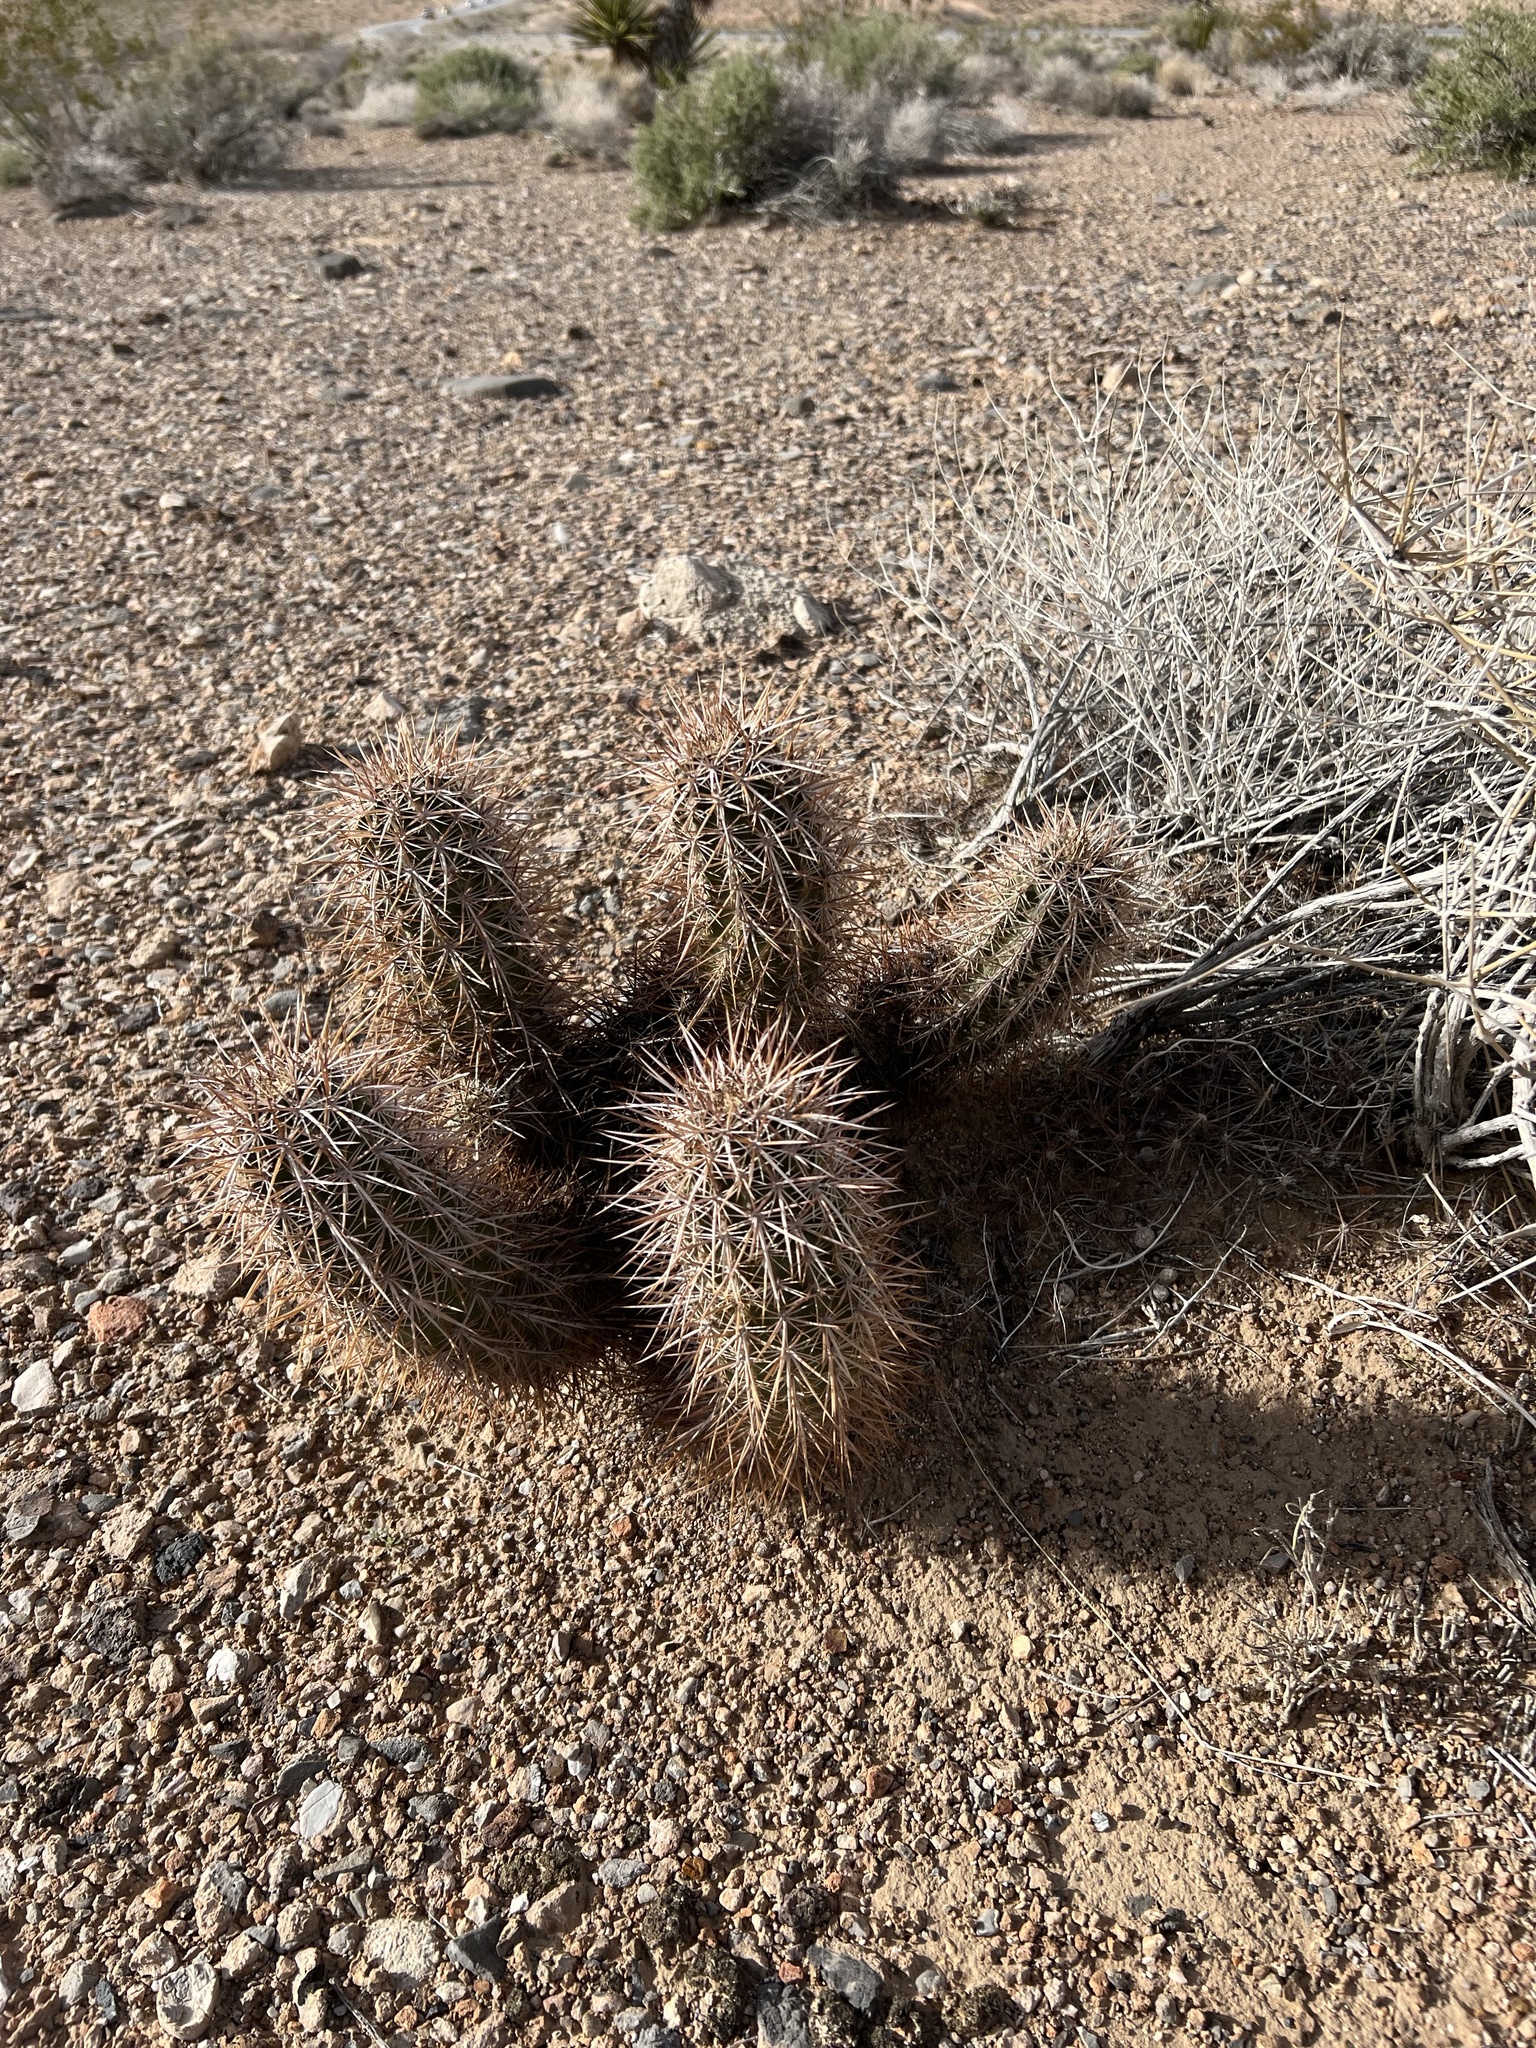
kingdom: Plantae
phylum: Tracheophyta
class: Magnoliopsida
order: Caryophyllales
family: Cactaceae
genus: Echinocereus
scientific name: Echinocereus engelmannii
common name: Engelmann's hedgehog cactus
